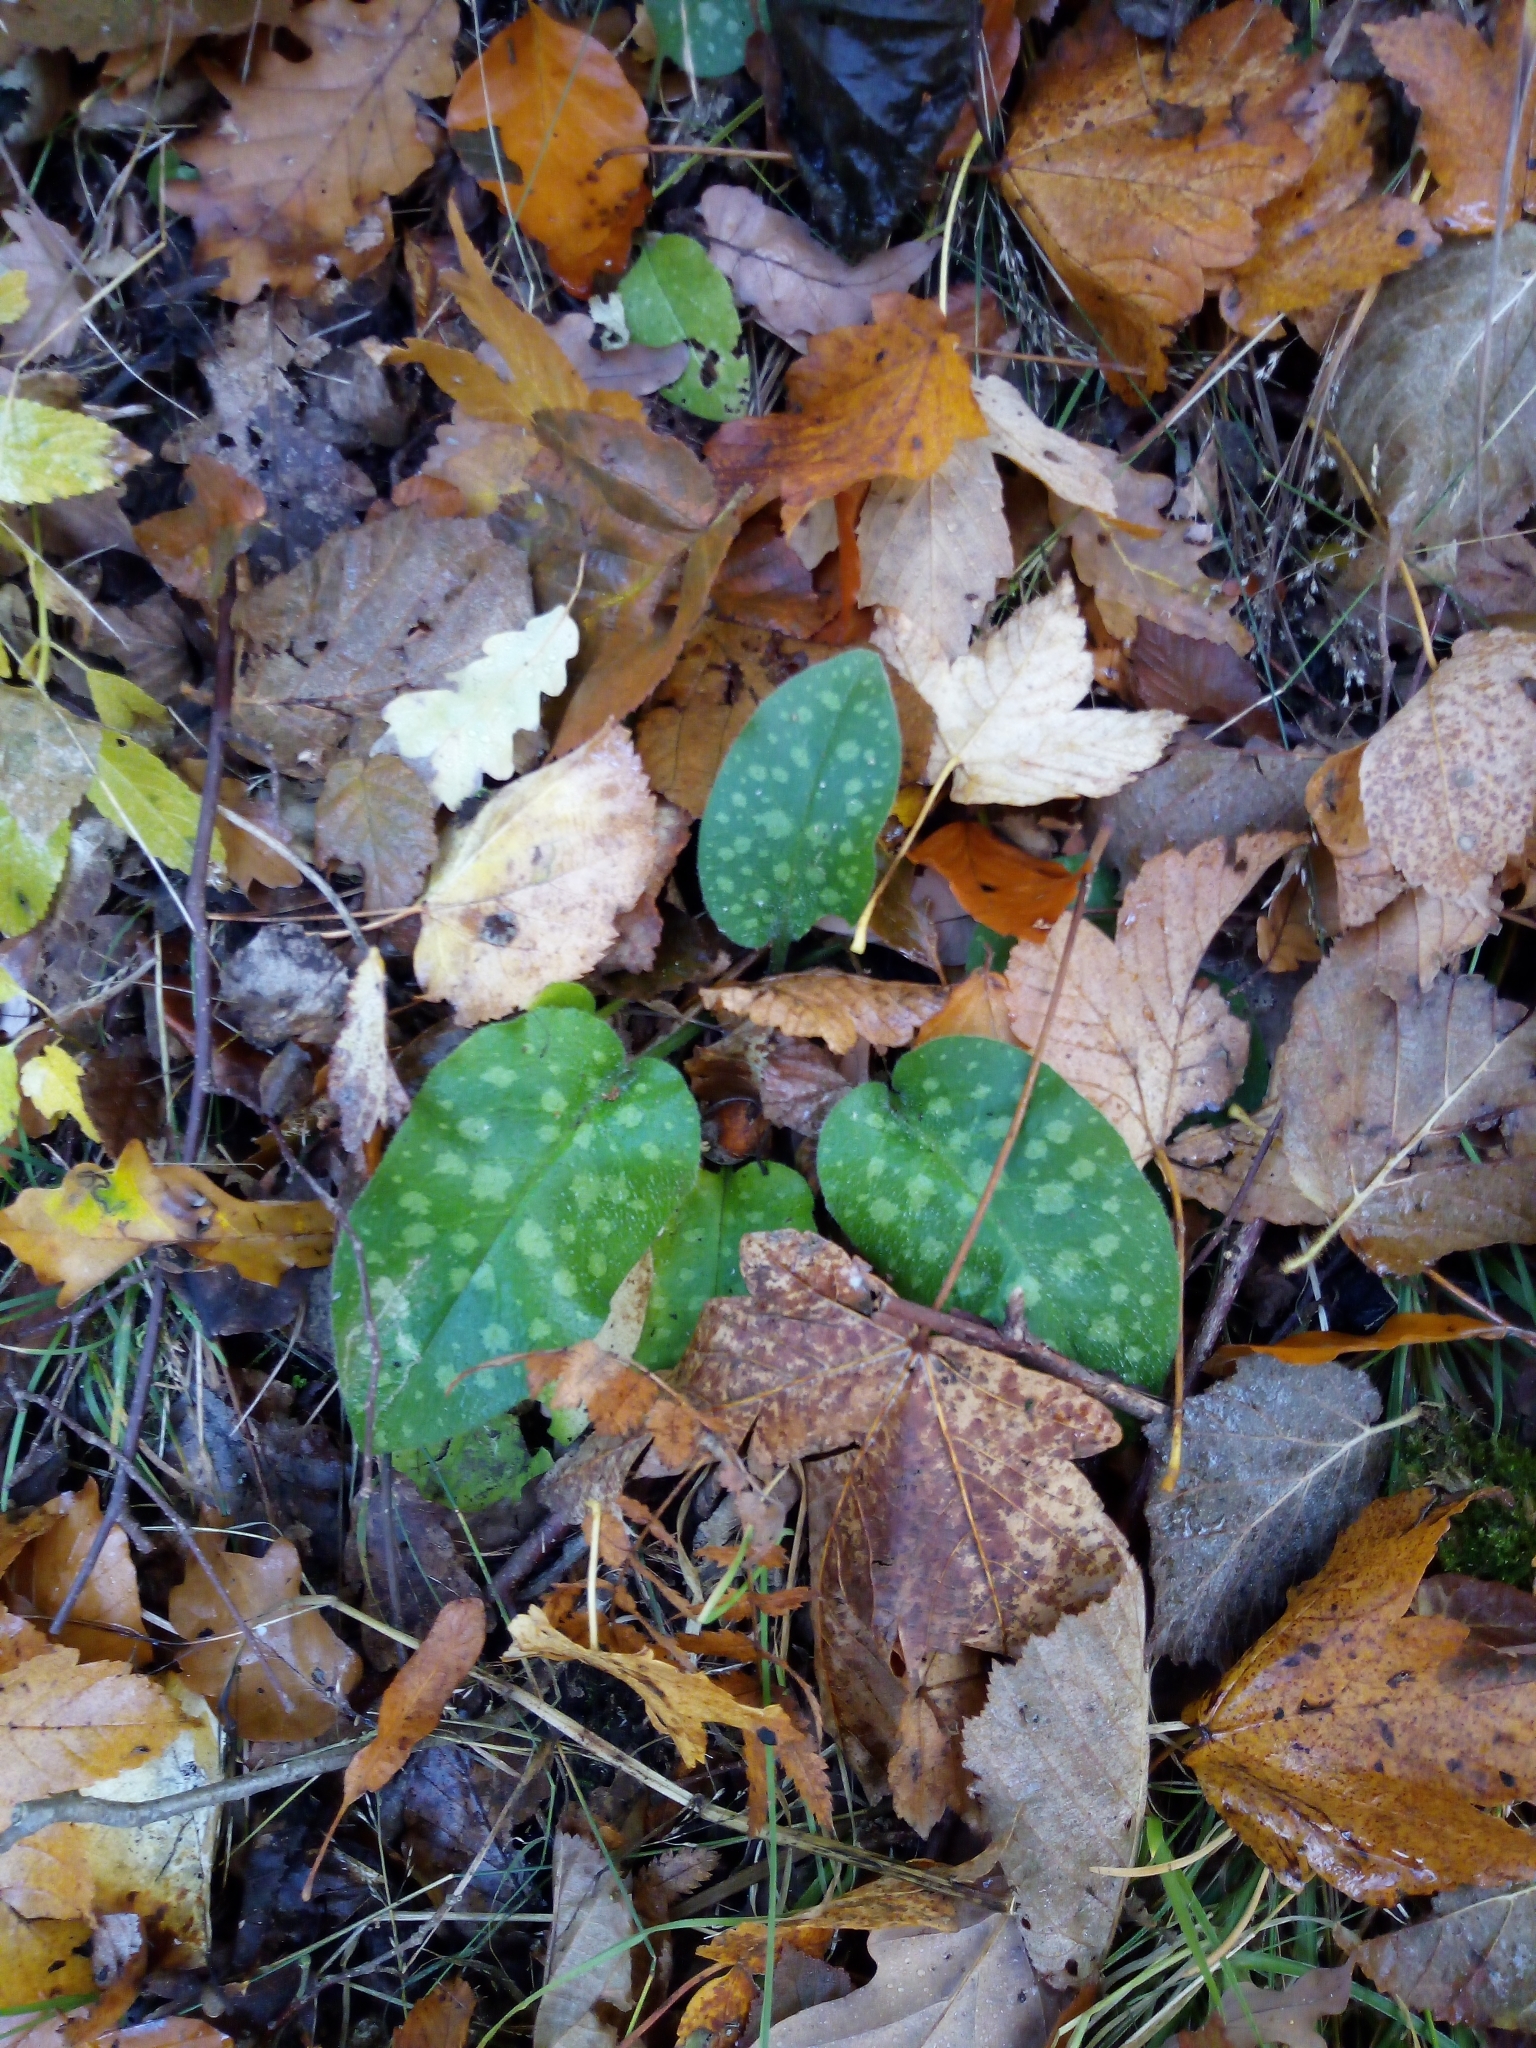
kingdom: Plantae
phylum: Tracheophyta
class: Magnoliopsida
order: Boraginales
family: Boraginaceae
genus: Pulmonaria
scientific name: Pulmonaria officinalis
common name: Lungwort
